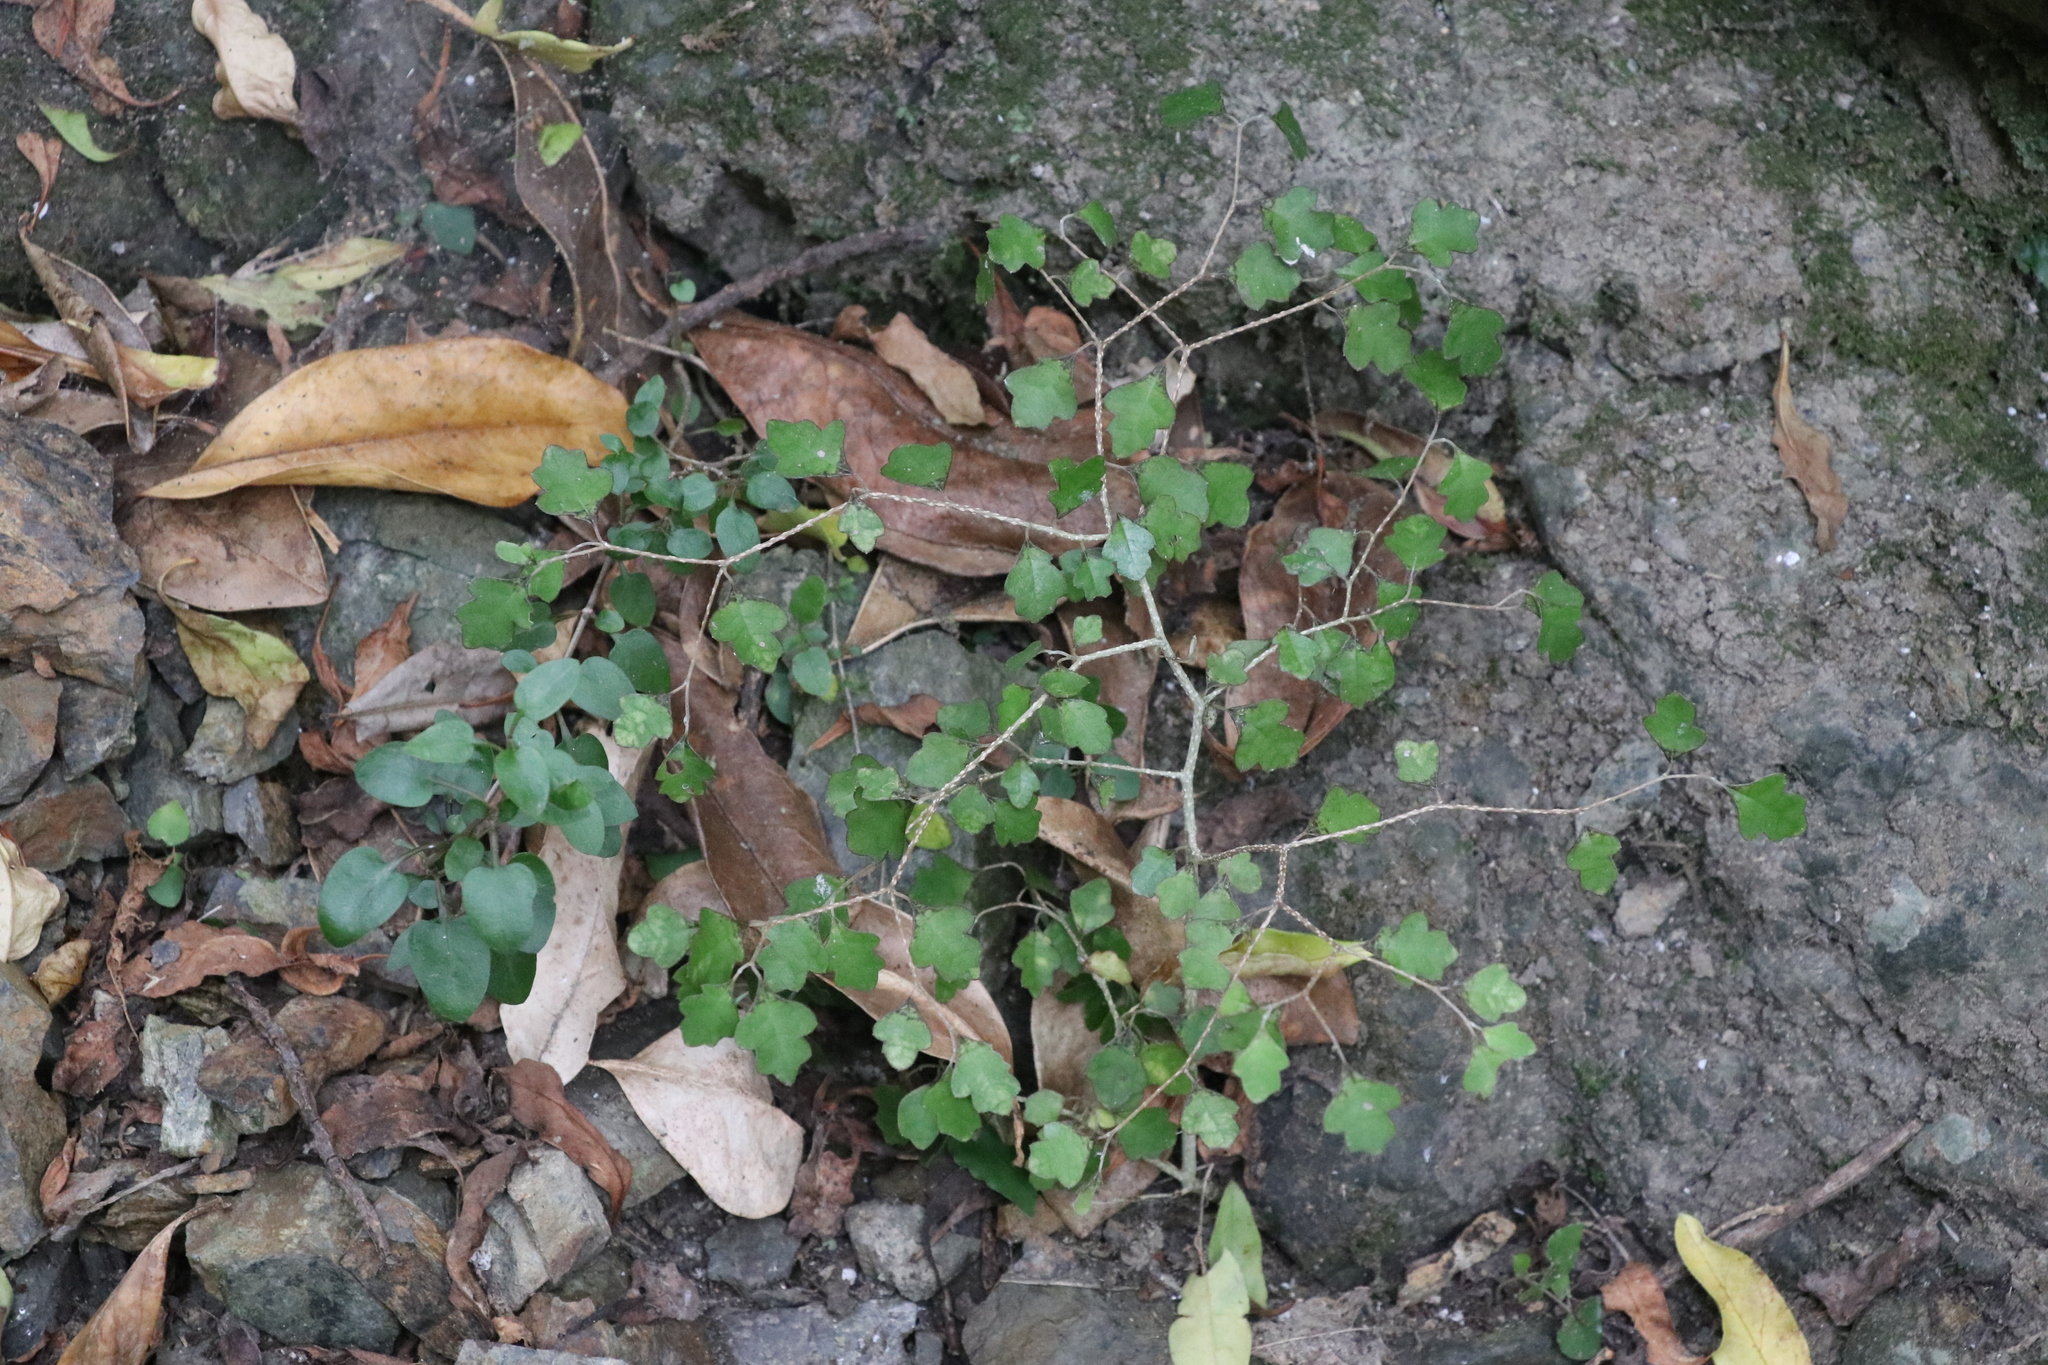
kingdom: Plantae
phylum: Tracheophyta
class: Magnoliopsida
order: Apiales
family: Pennantiaceae
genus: Pennantia
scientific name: Pennantia corymbosa
